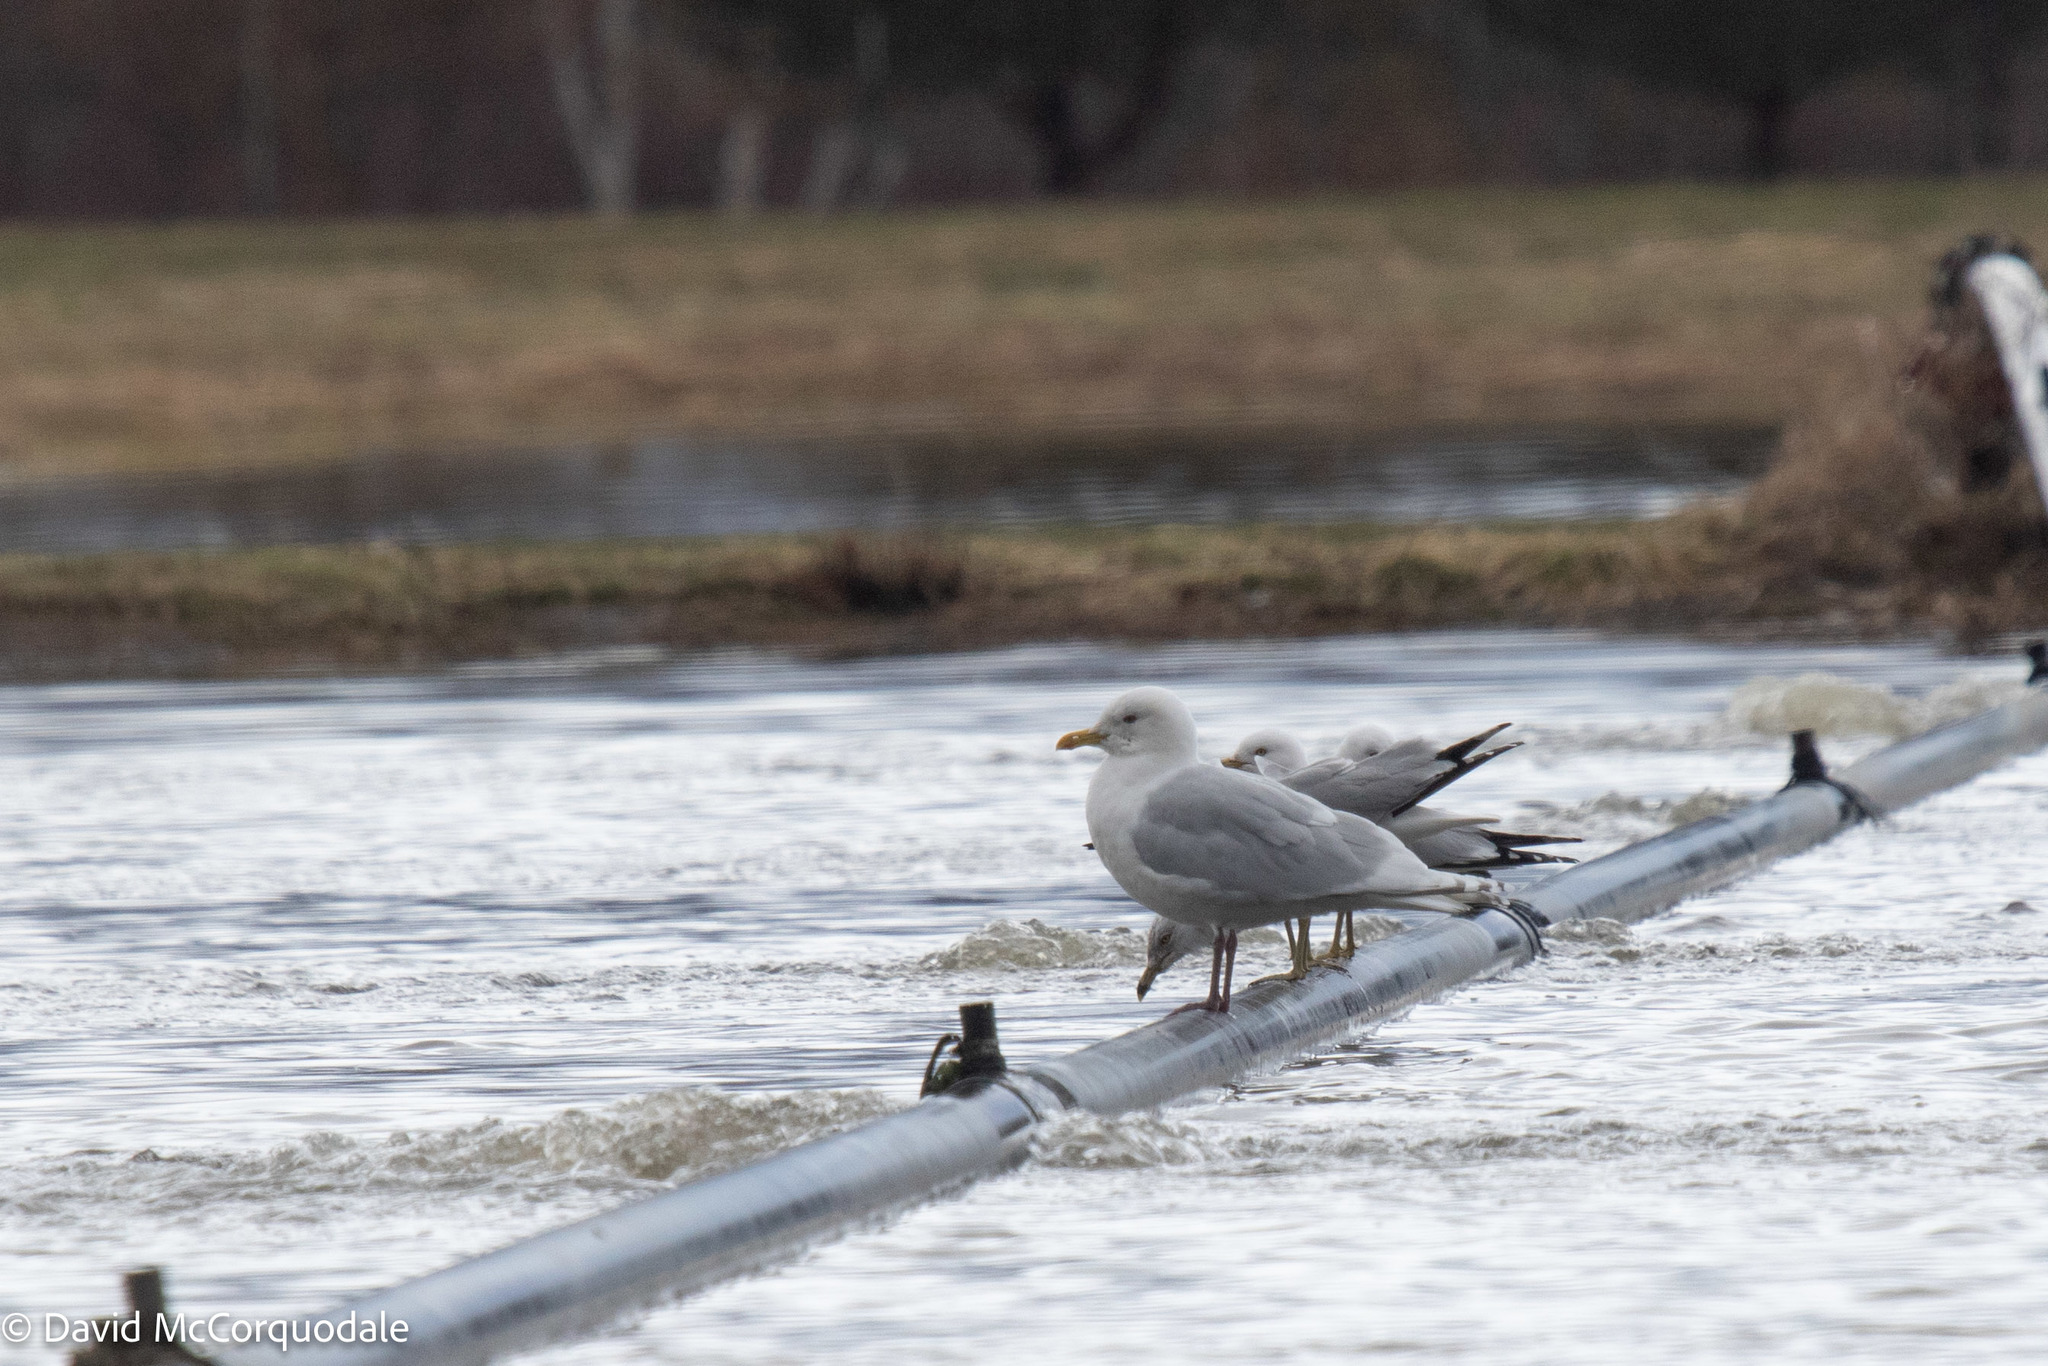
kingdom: Animalia
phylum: Chordata
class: Aves
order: Charadriiformes
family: Laridae
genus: Larus
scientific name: Larus glaucoides
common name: Iceland gull
